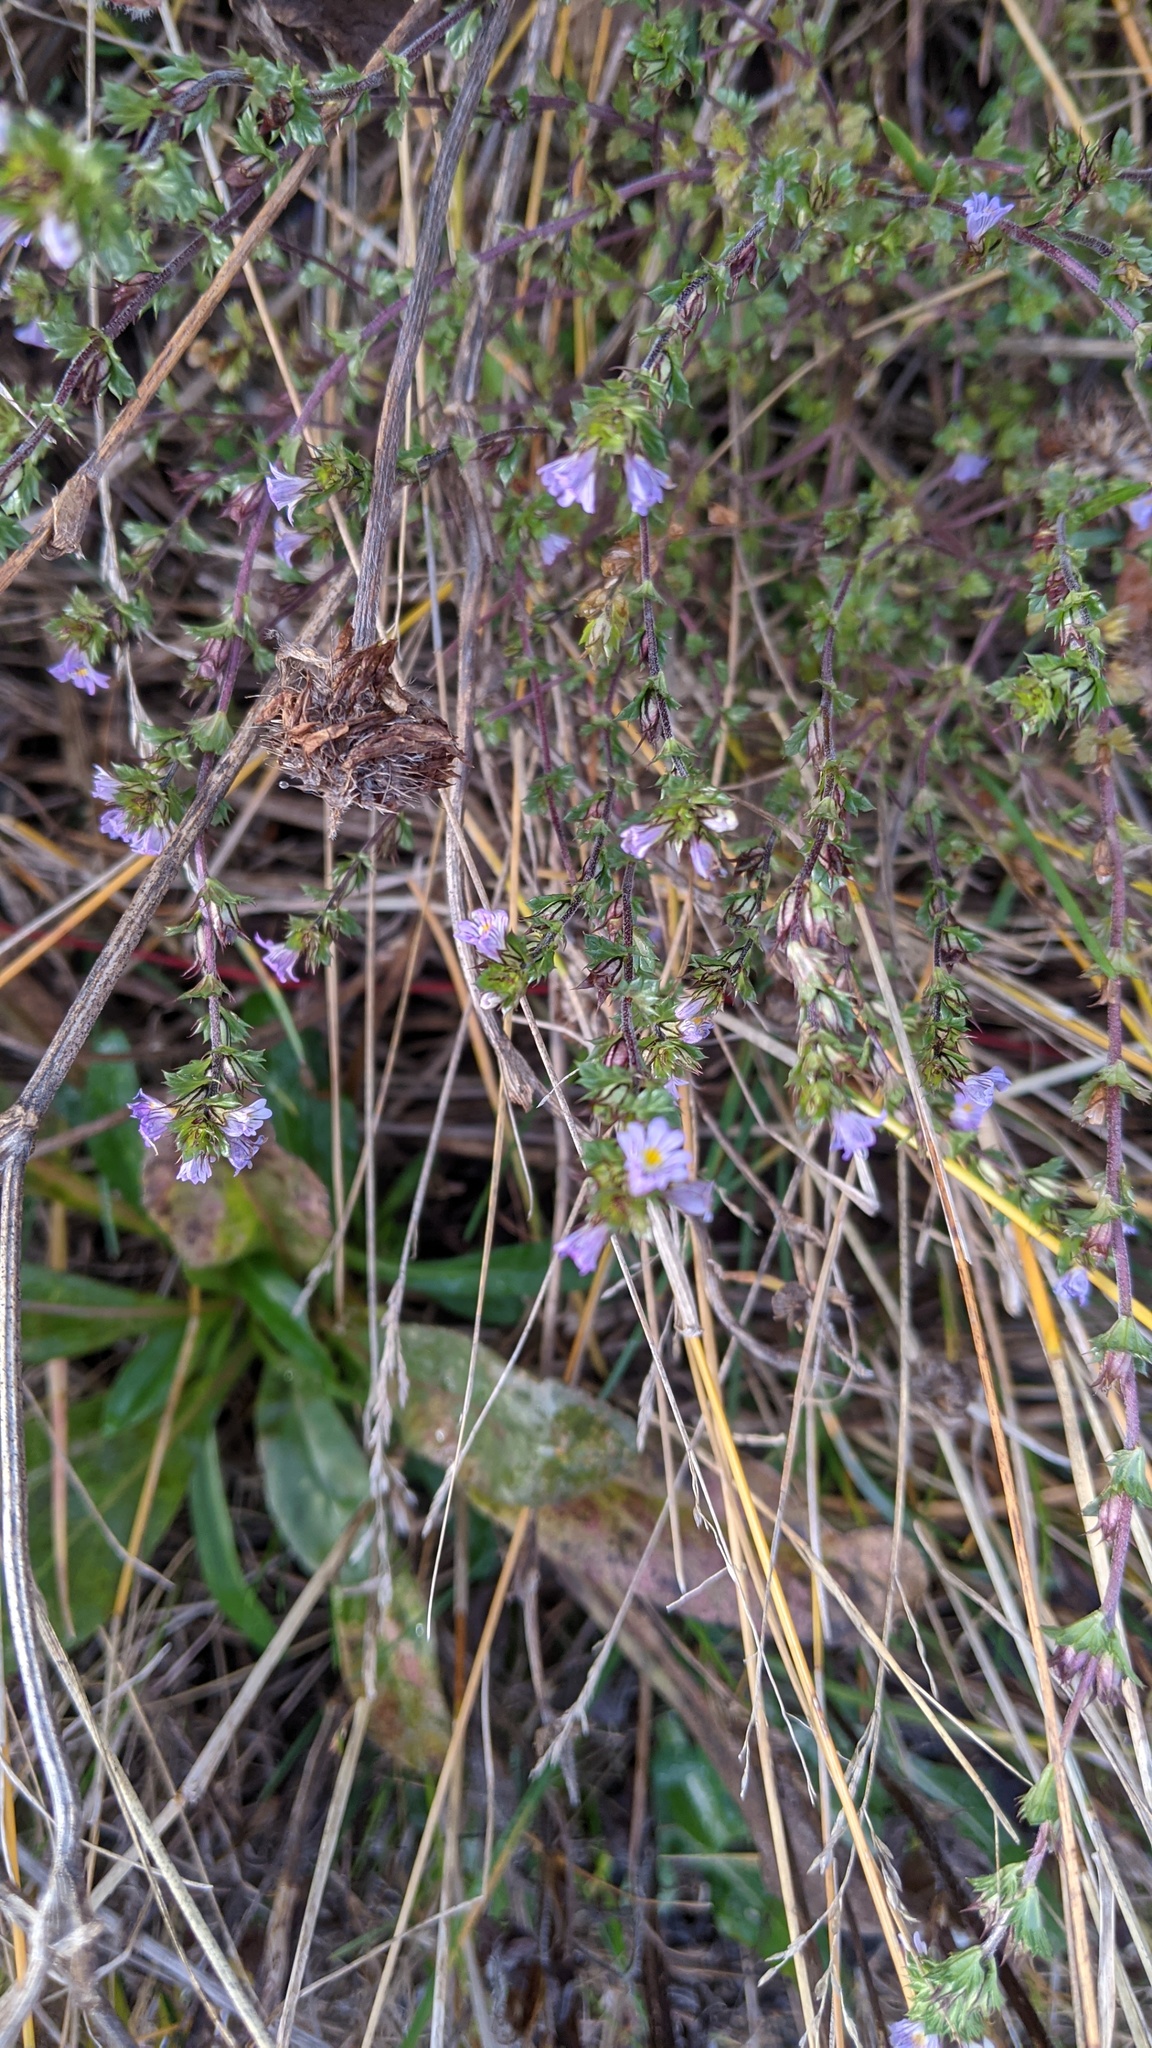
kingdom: Plantae
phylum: Tracheophyta
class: Magnoliopsida
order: Lamiales
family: Orobanchaceae
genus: Euphrasia
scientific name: Euphrasia nemorosa
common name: Common eyebright
